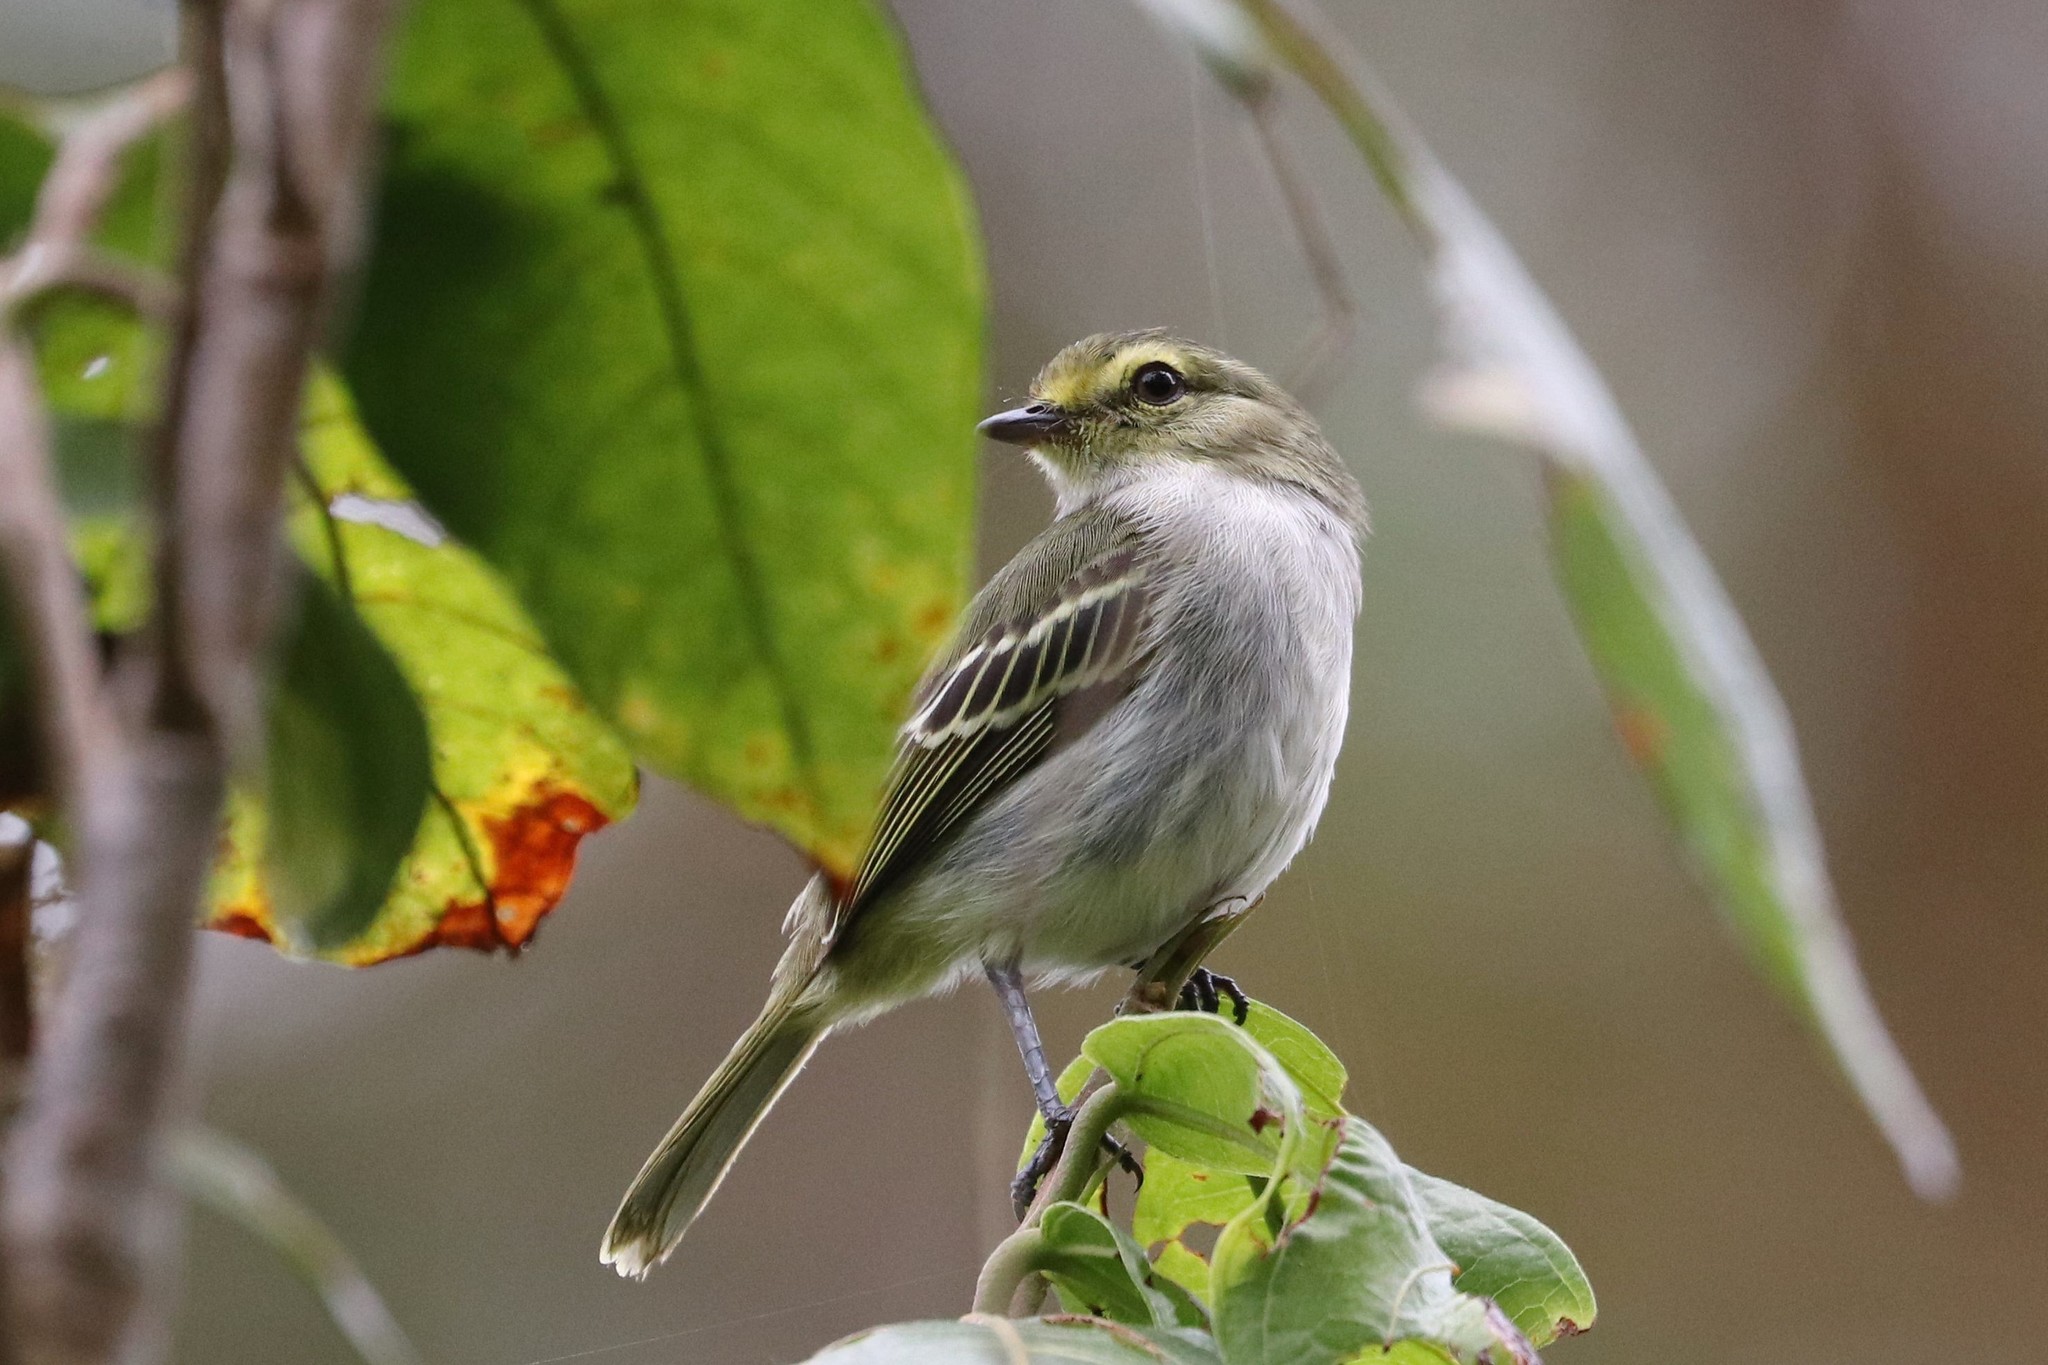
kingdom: Animalia
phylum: Chordata
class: Aves
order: Passeriformes
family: Tyrannidae
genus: Zimmerius
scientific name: Zimmerius chrysops
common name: Golden-faced tyrannulet
